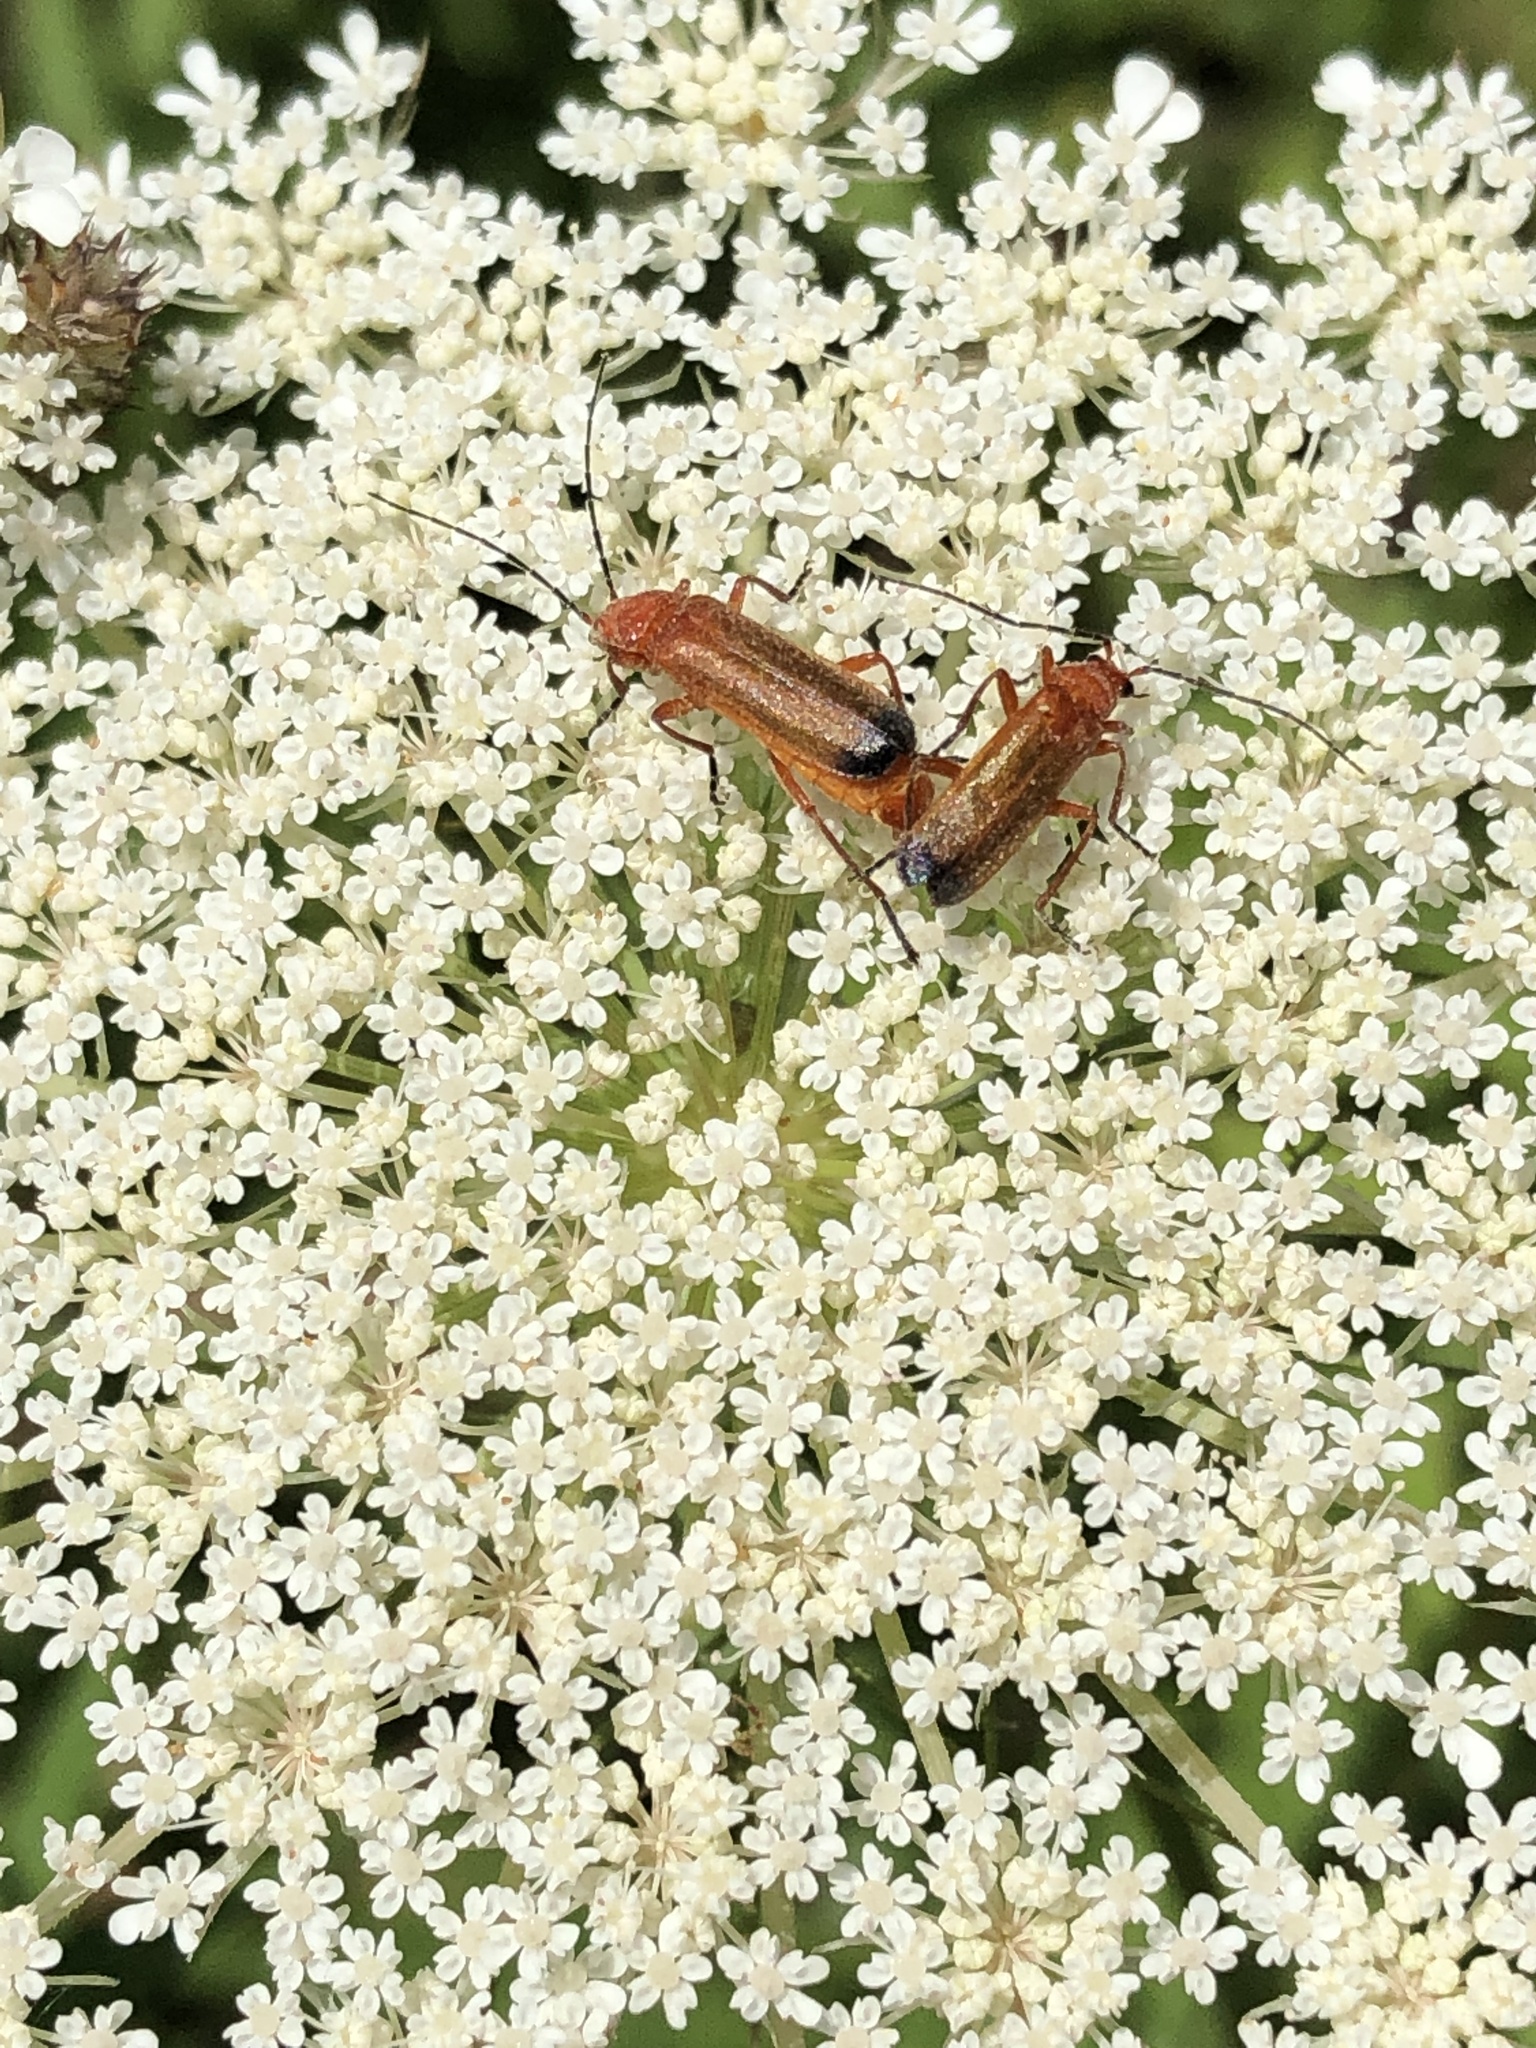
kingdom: Animalia
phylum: Arthropoda
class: Insecta
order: Coleoptera
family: Cantharidae
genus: Rhagonycha
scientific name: Rhagonycha fulva
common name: Common red soldier beetle
